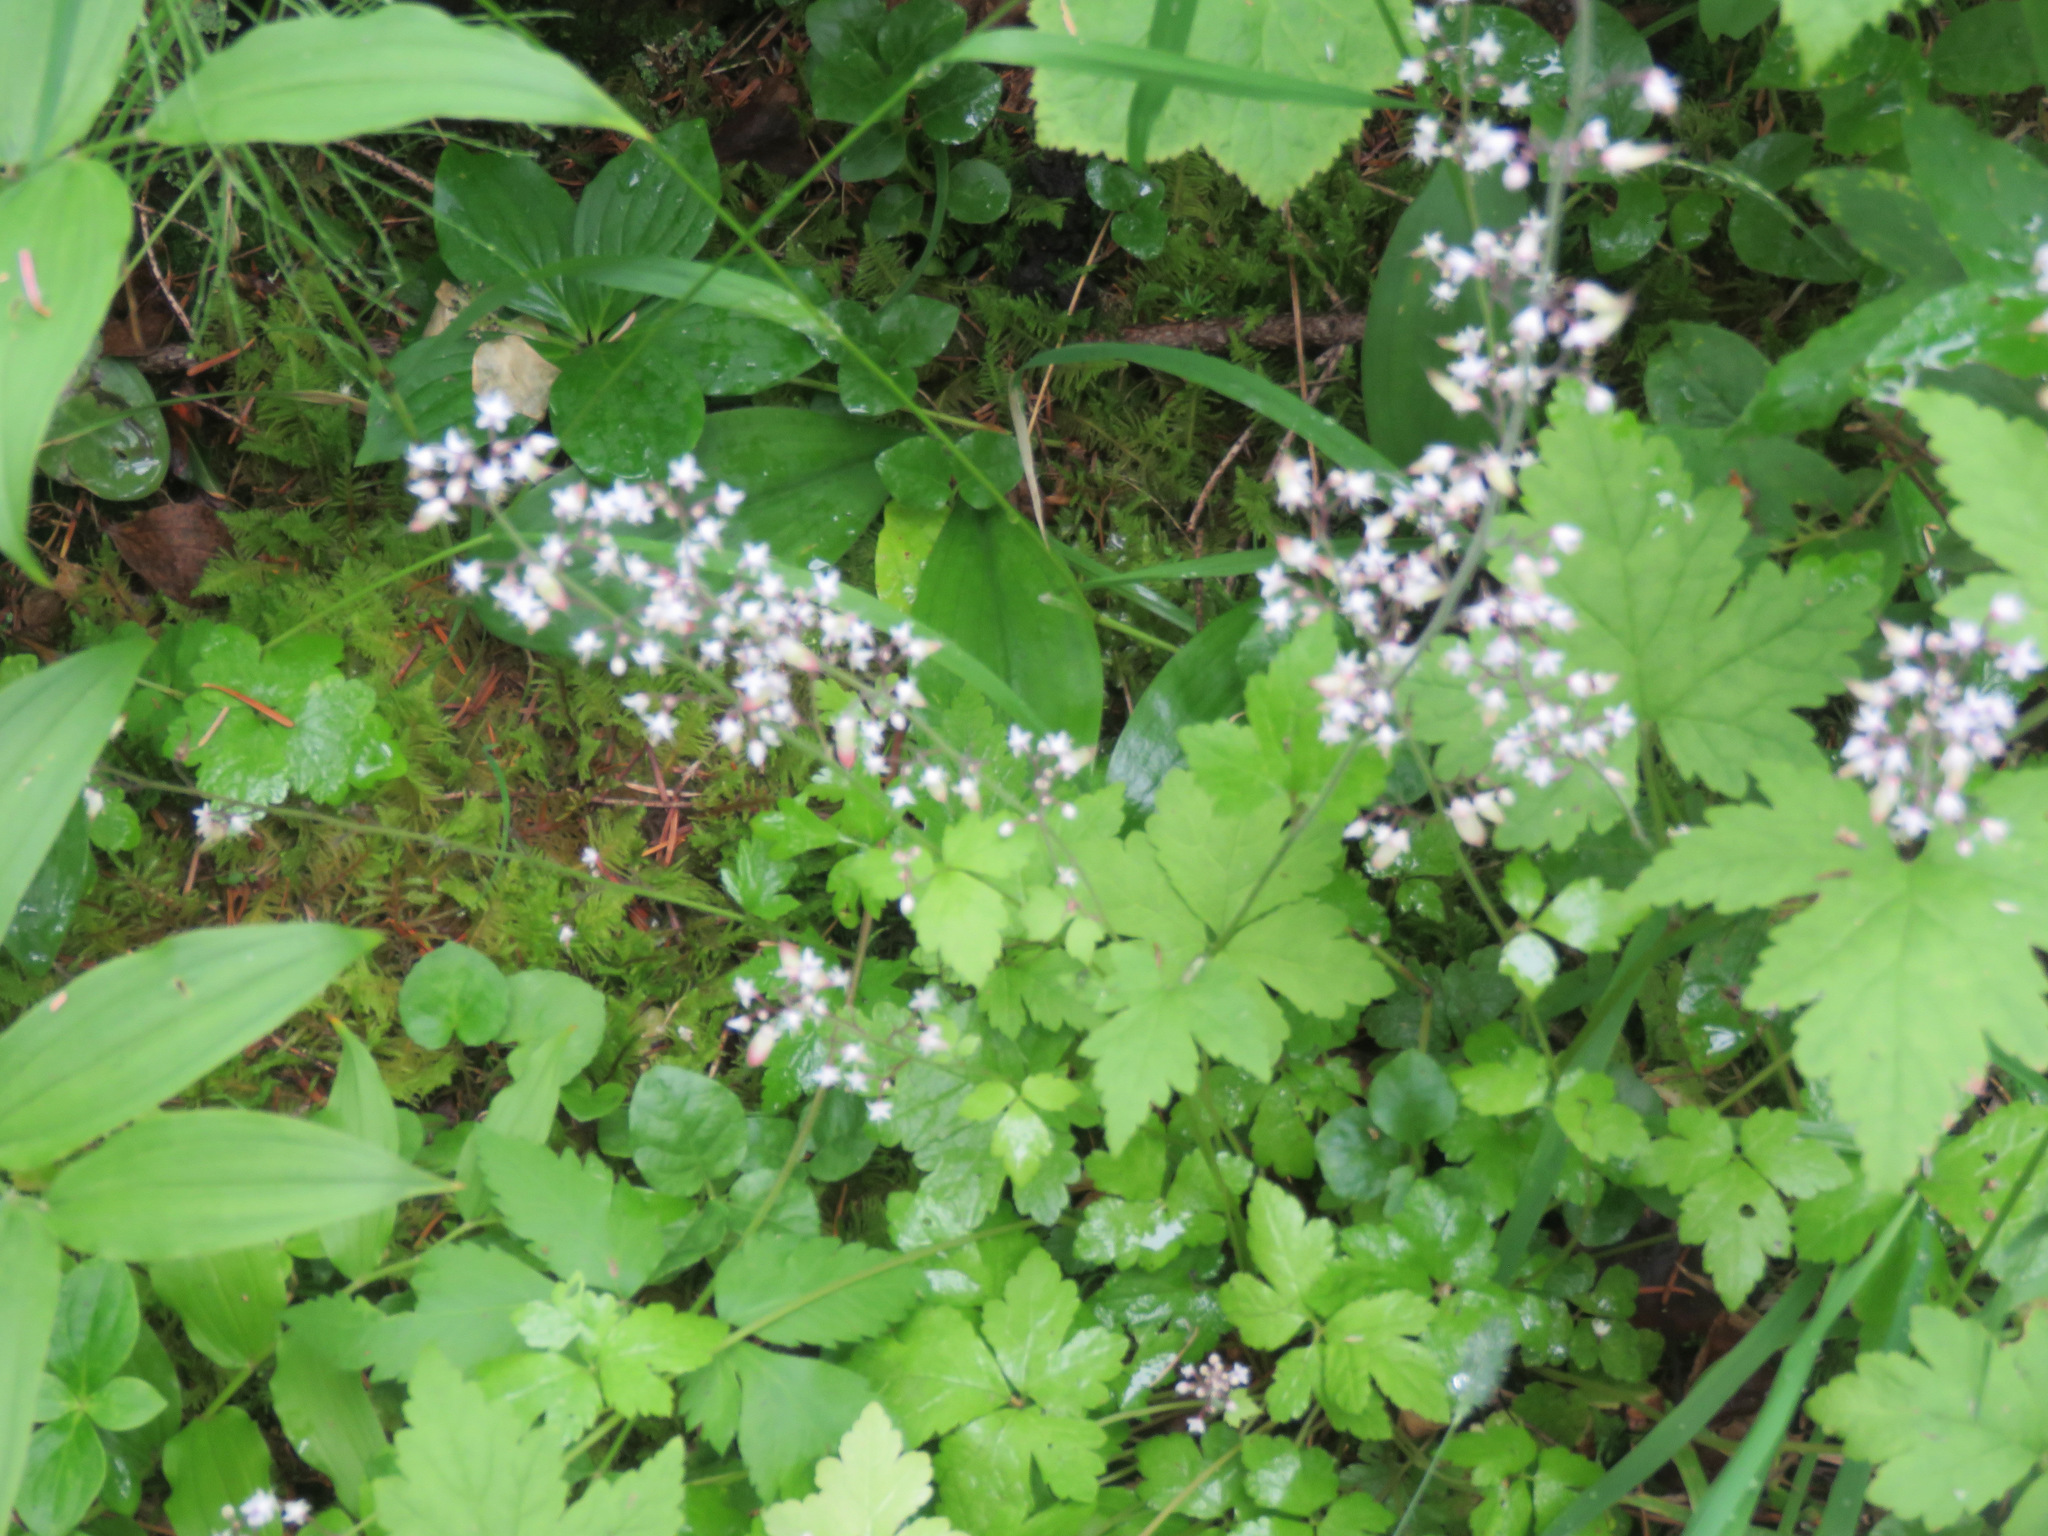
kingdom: Plantae
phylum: Tracheophyta
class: Magnoliopsida
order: Saxifragales
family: Saxifragaceae
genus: Tiarella
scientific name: Tiarella trifoliata
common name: Sugar-scoop
